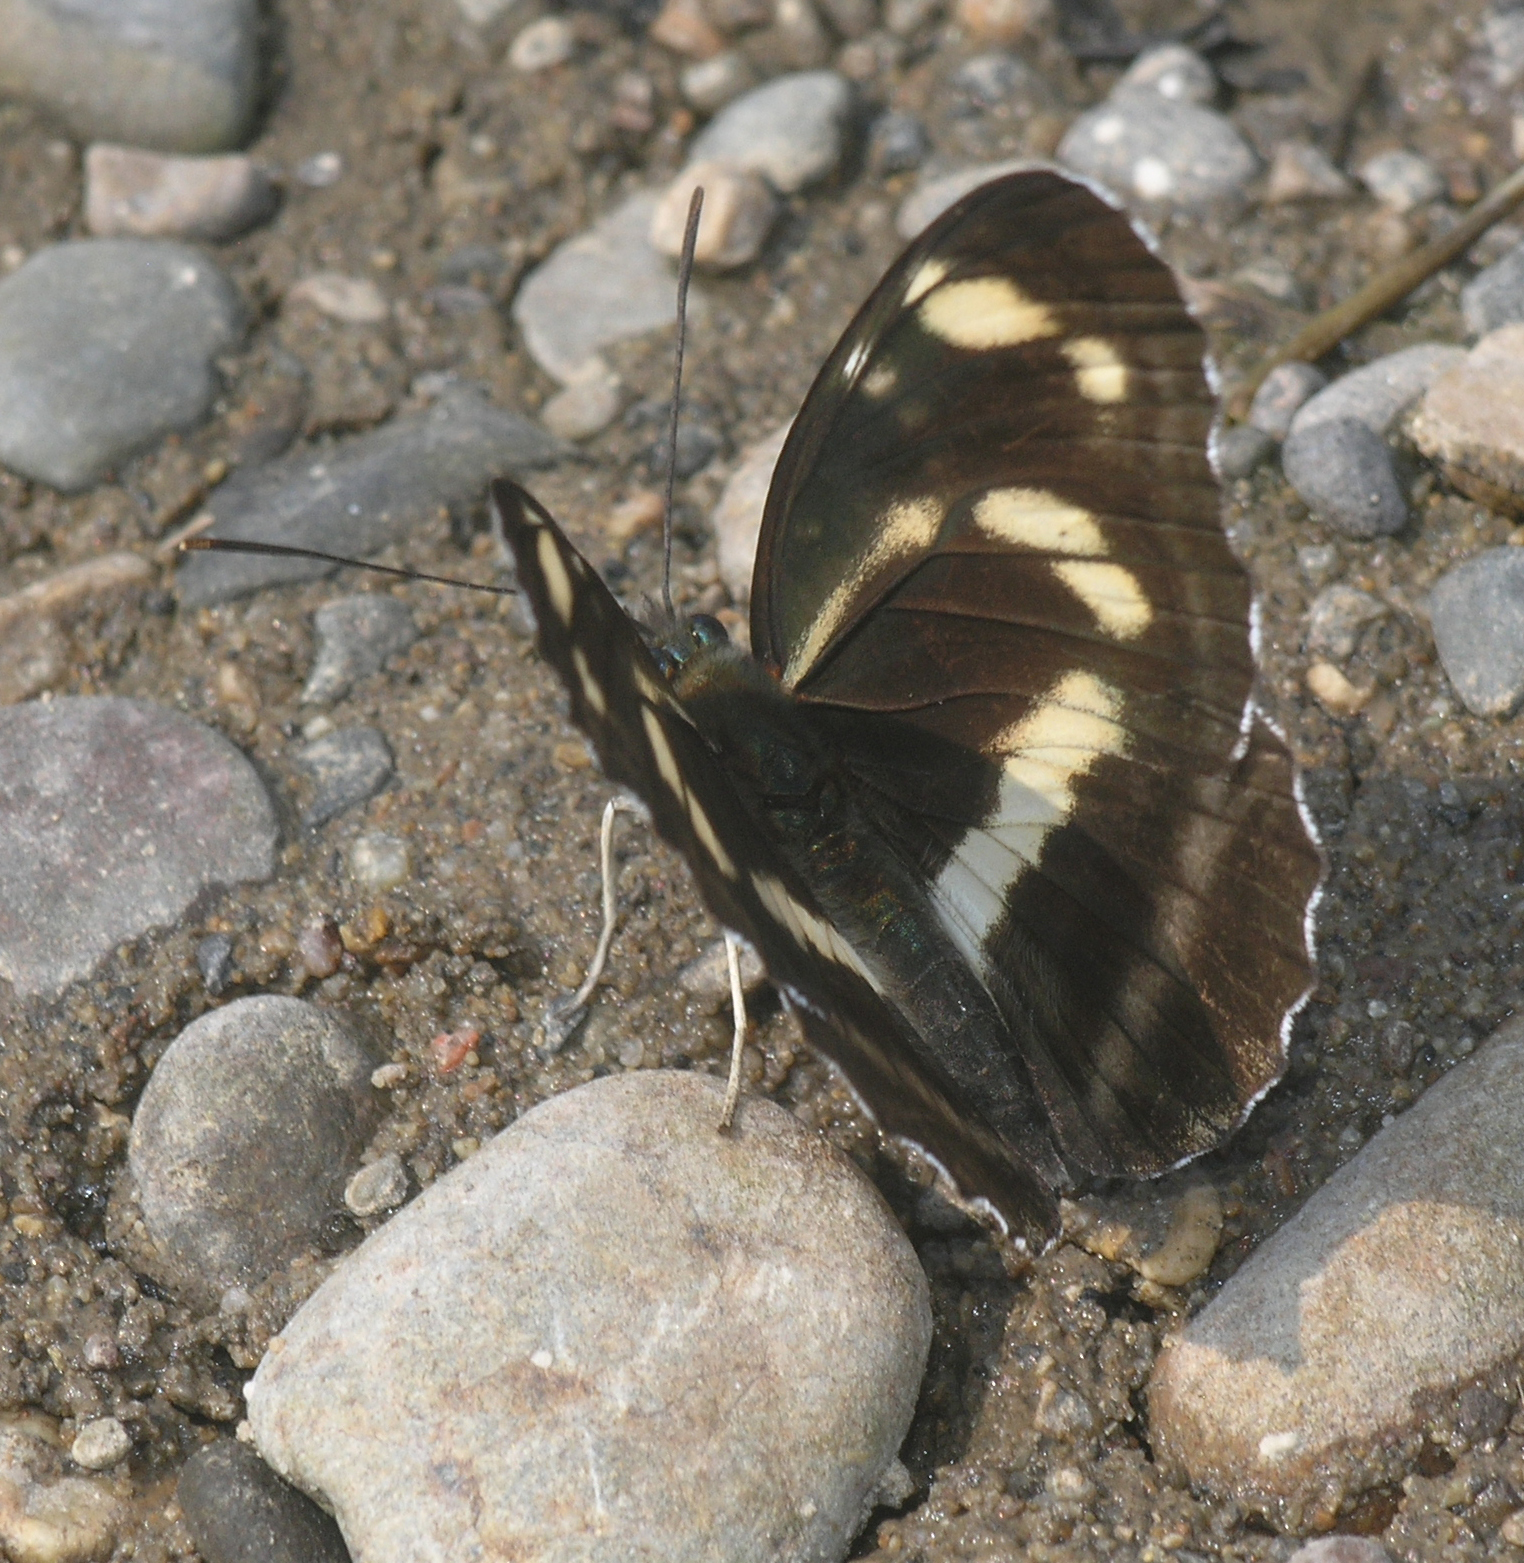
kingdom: Animalia
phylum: Arthropoda
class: Insecta
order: Lepidoptera
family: Nymphalidae
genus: Neptis
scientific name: Neptis thisbe
